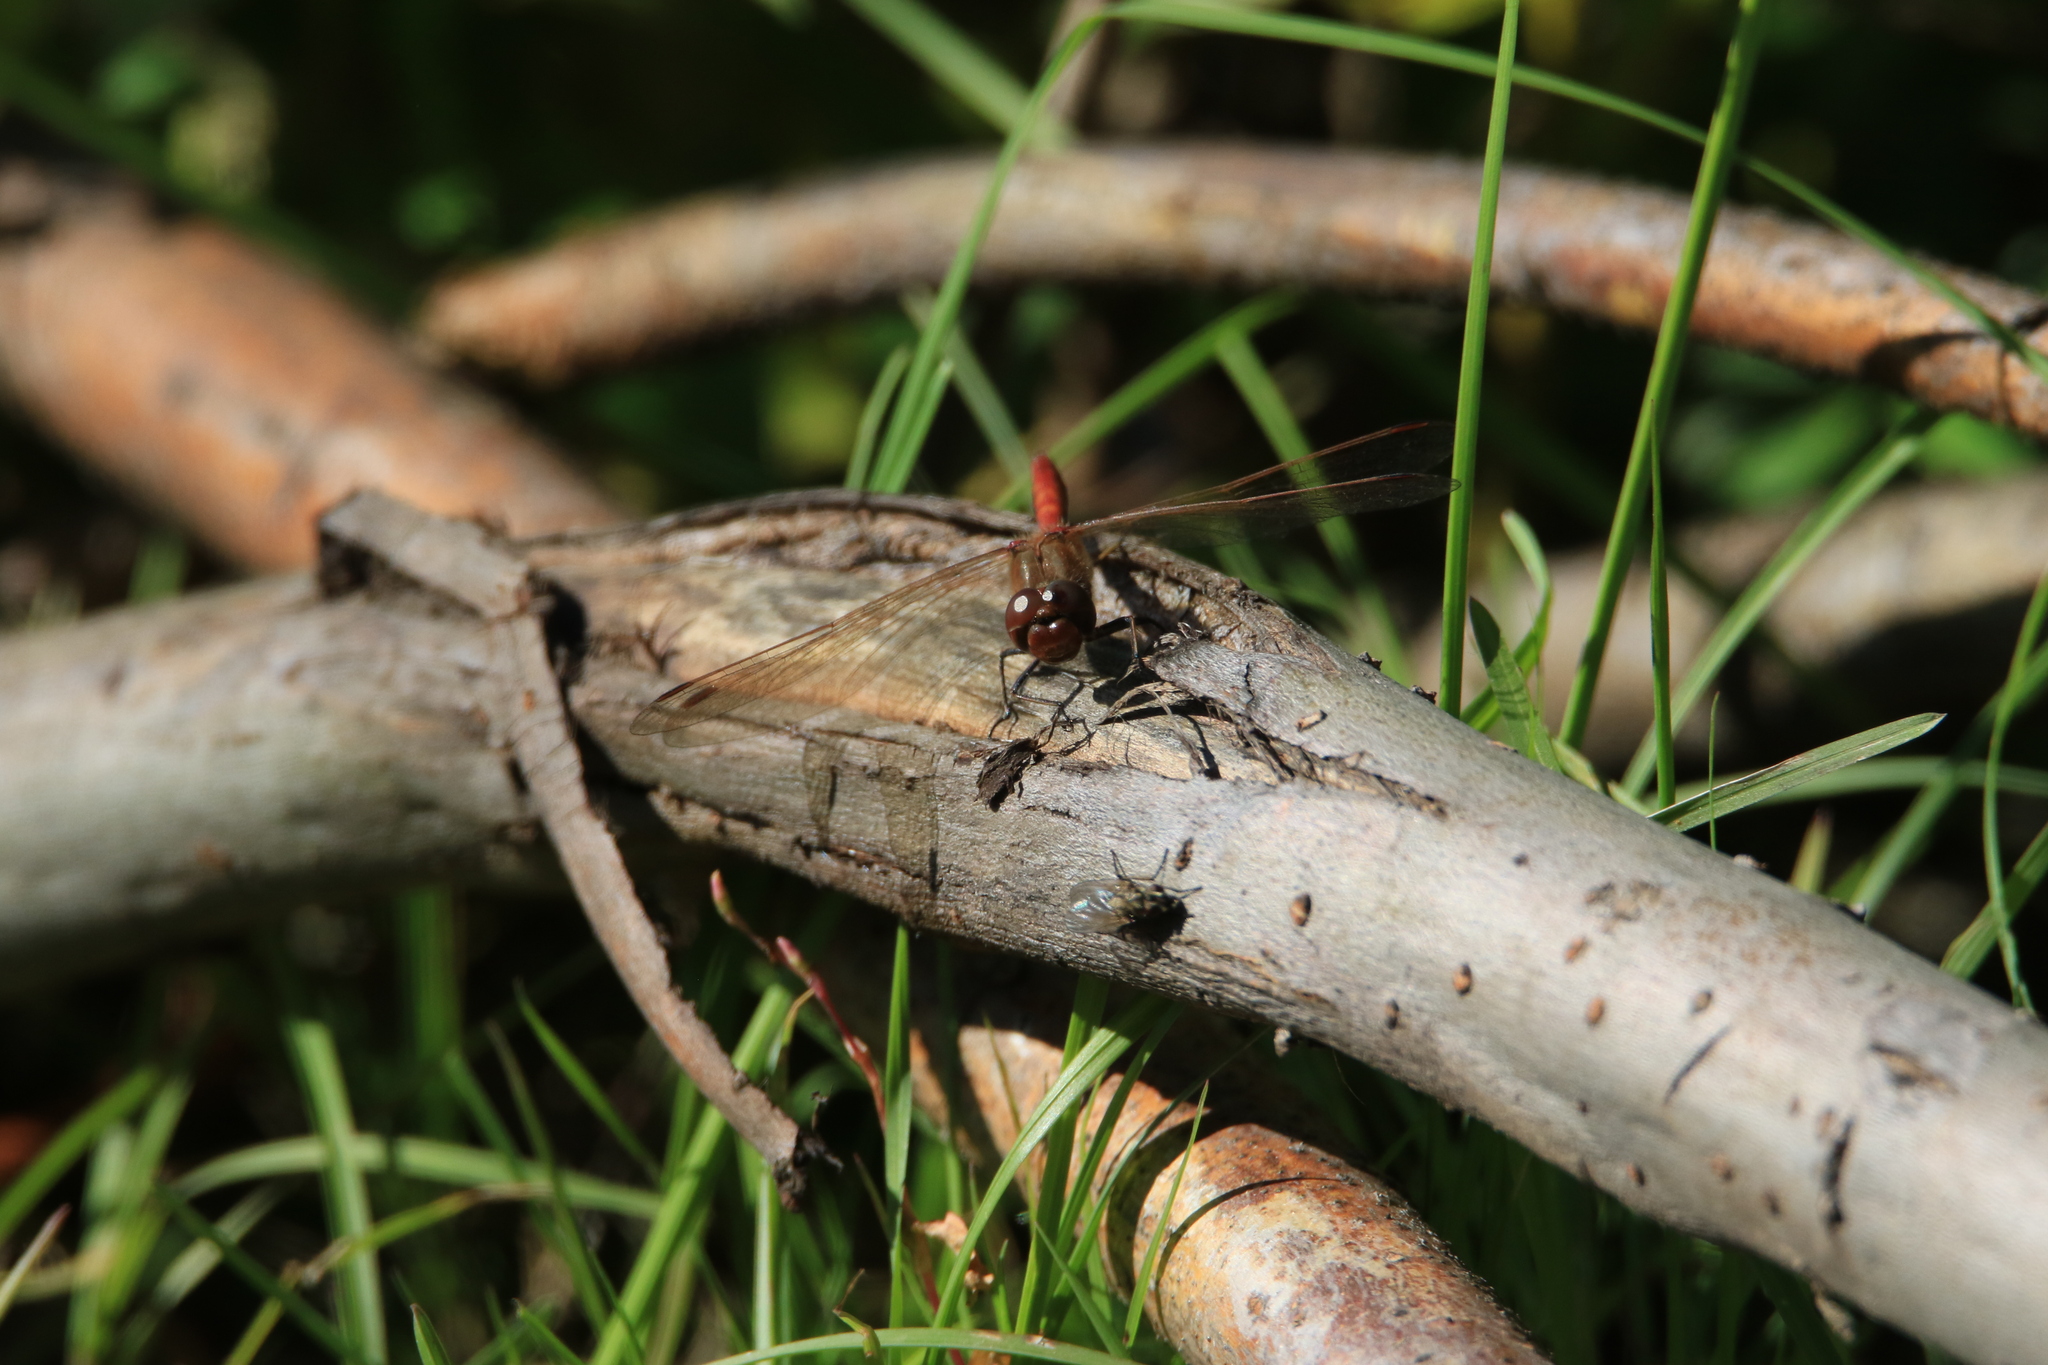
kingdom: Animalia
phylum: Arthropoda
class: Insecta
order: Odonata
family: Libellulidae
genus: Sympetrum
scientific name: Sympetrum vulgatum
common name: Vagrant darter
